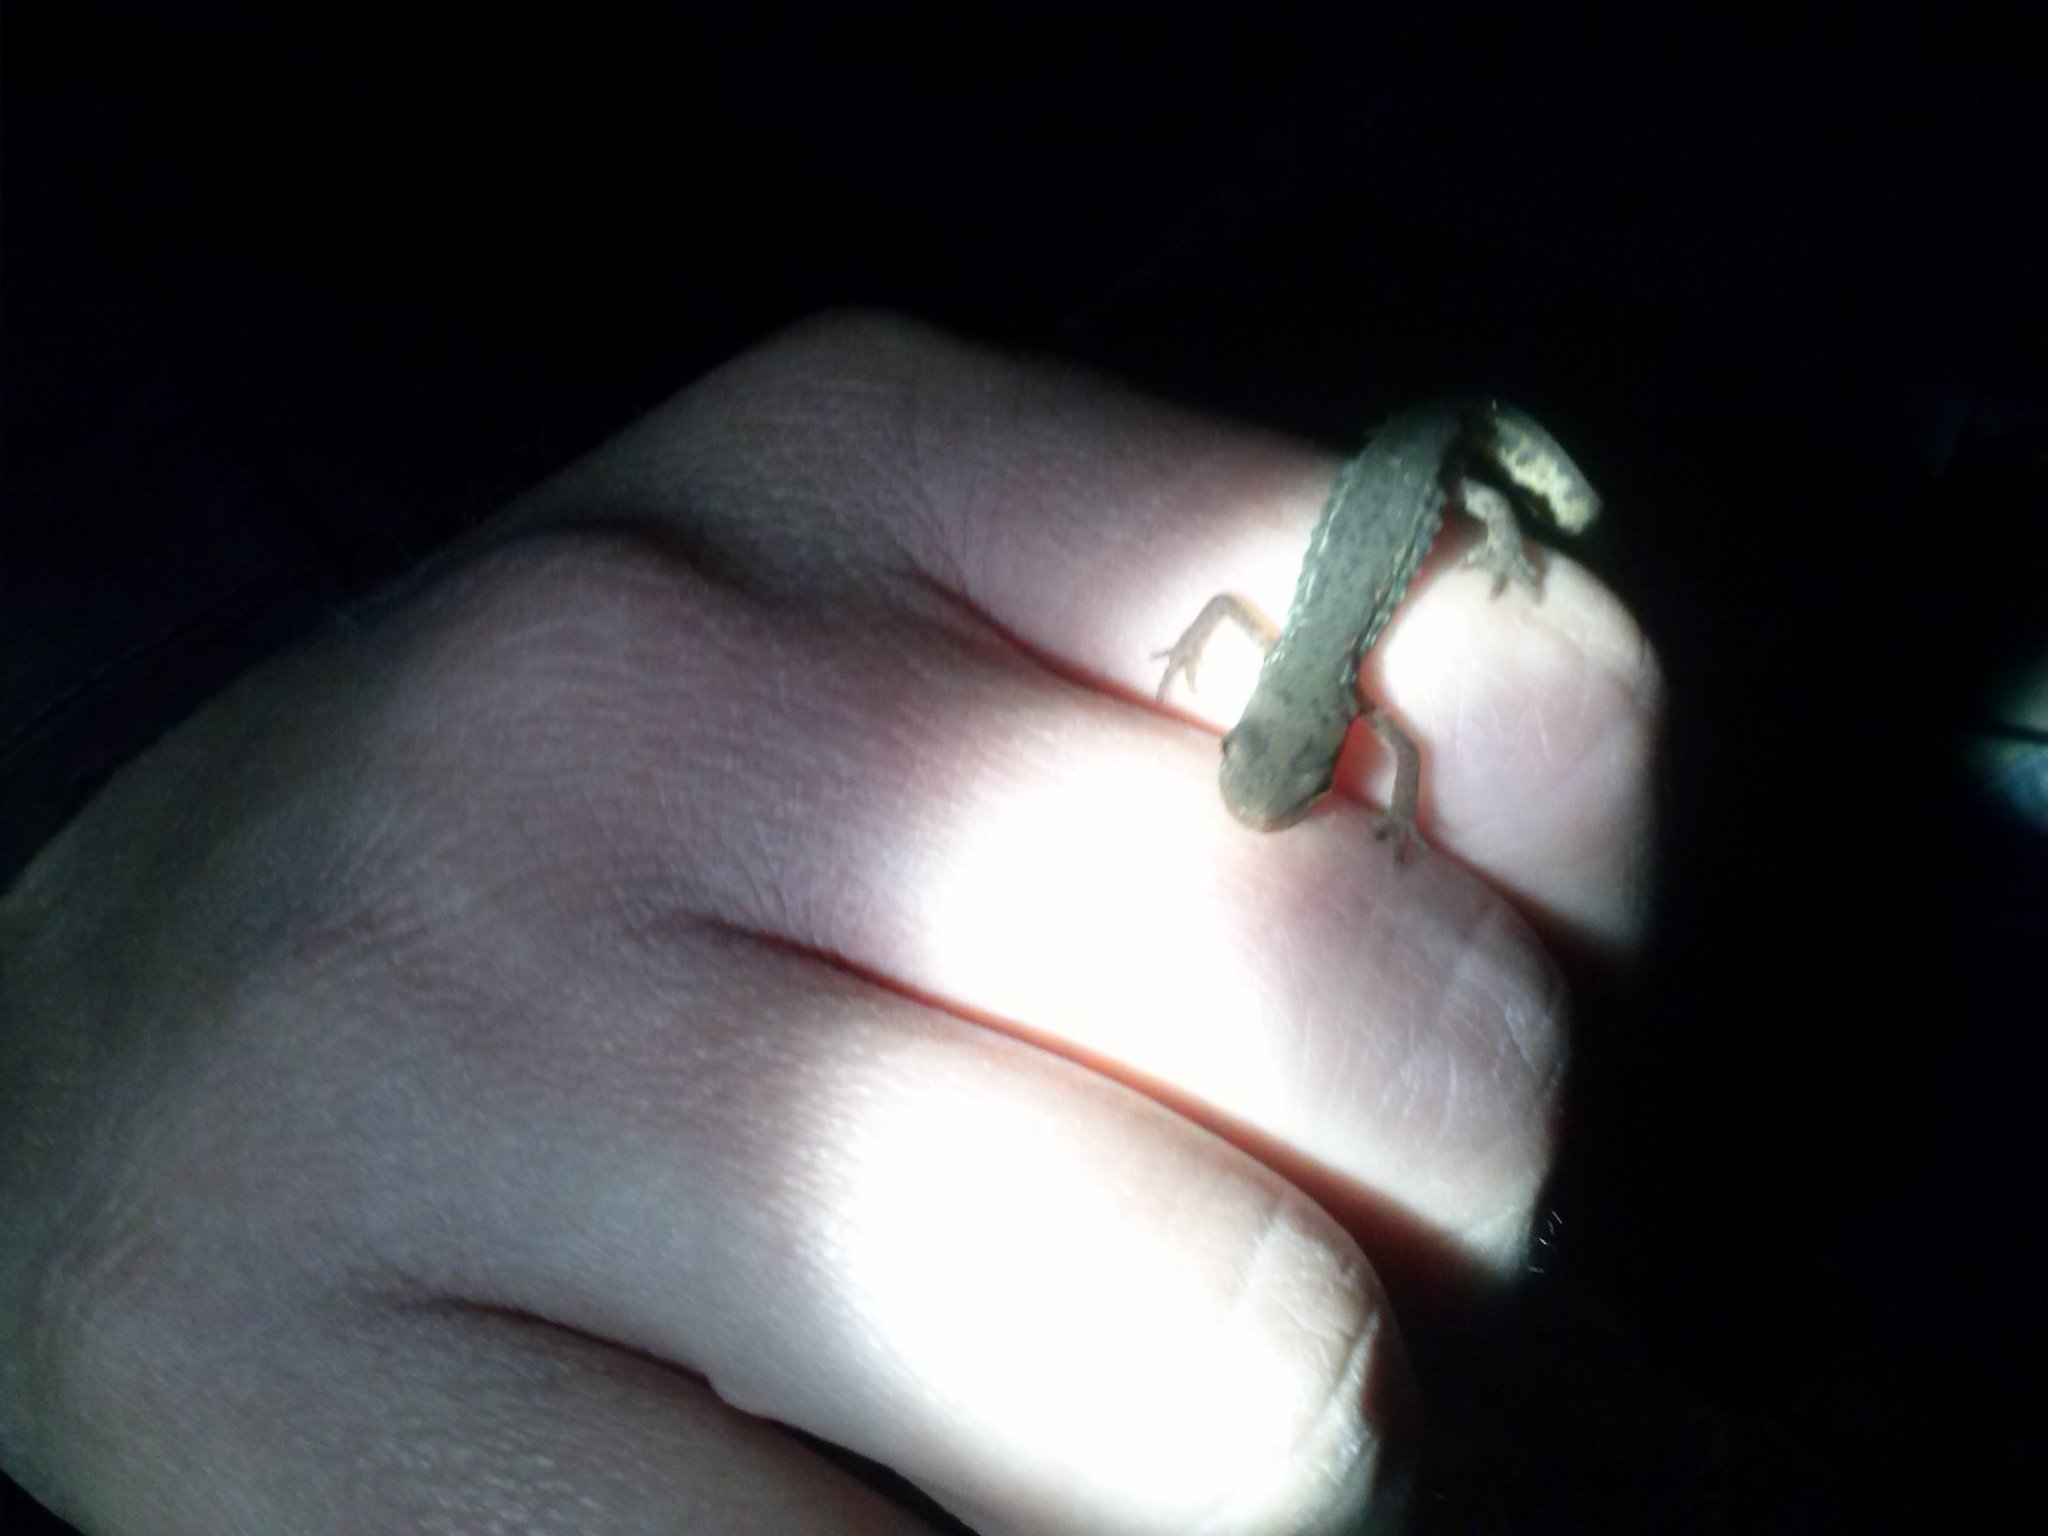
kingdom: Animalia
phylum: Chordata
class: Amphibia
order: Caudata
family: Salamandridae
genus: Lissotriton
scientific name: Lissotriton italicus
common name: Italian newt
